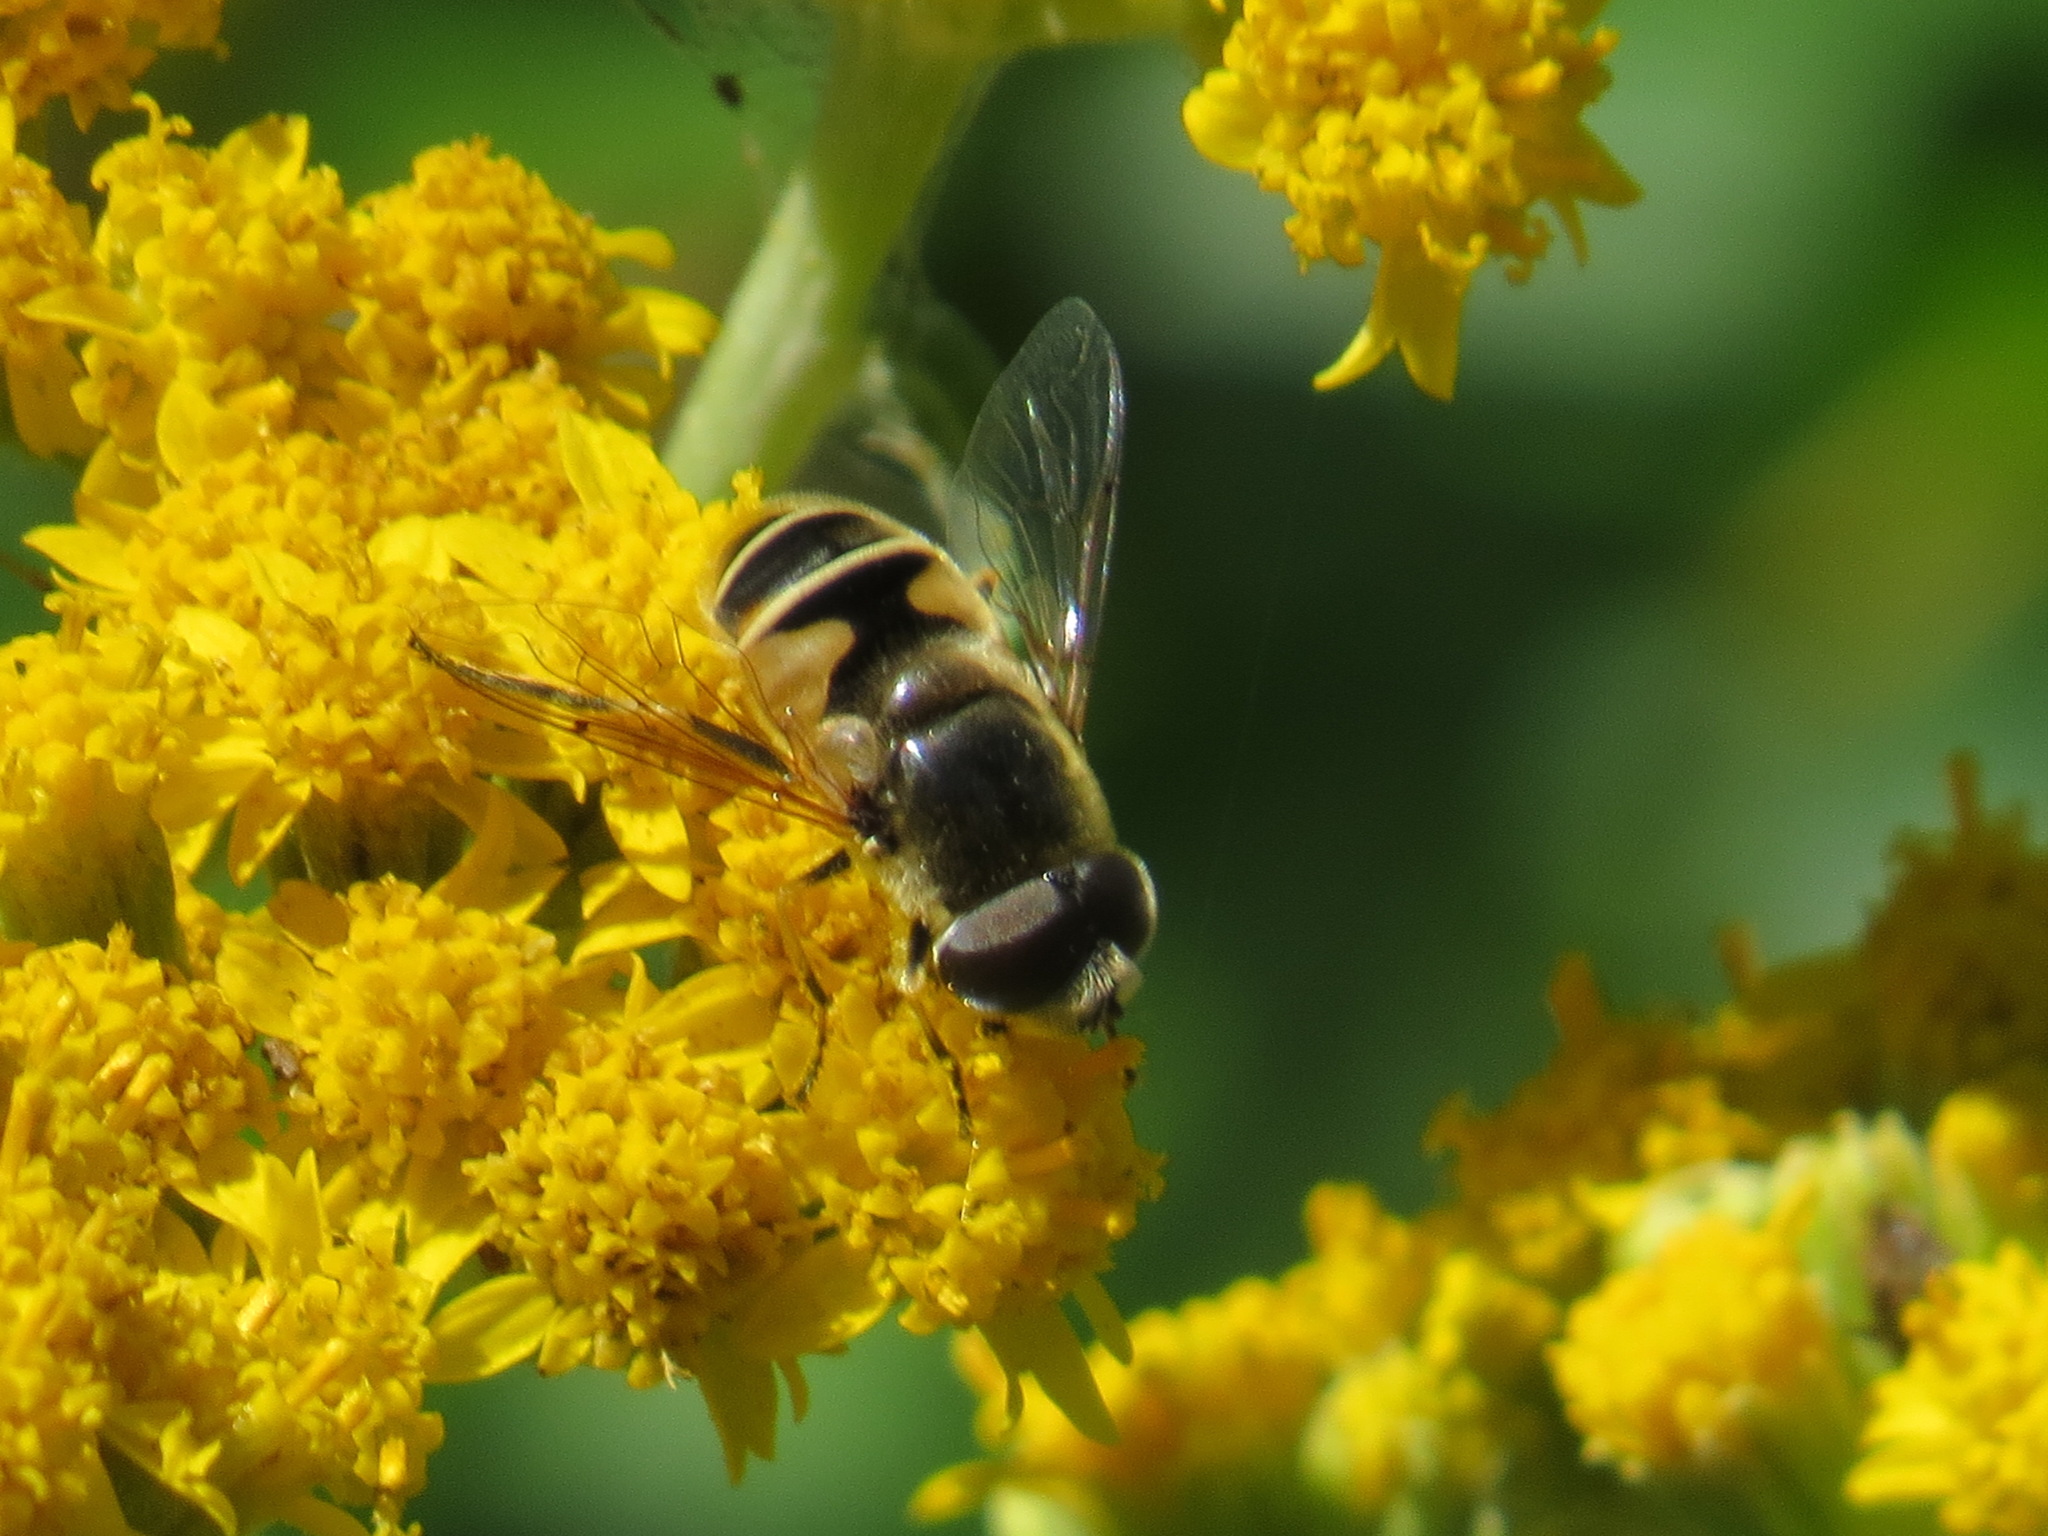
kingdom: Animalia
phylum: Arthropoda
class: Insecta
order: Diptera
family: Syrphidae
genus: Eristalis
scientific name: Eristalis hirta
